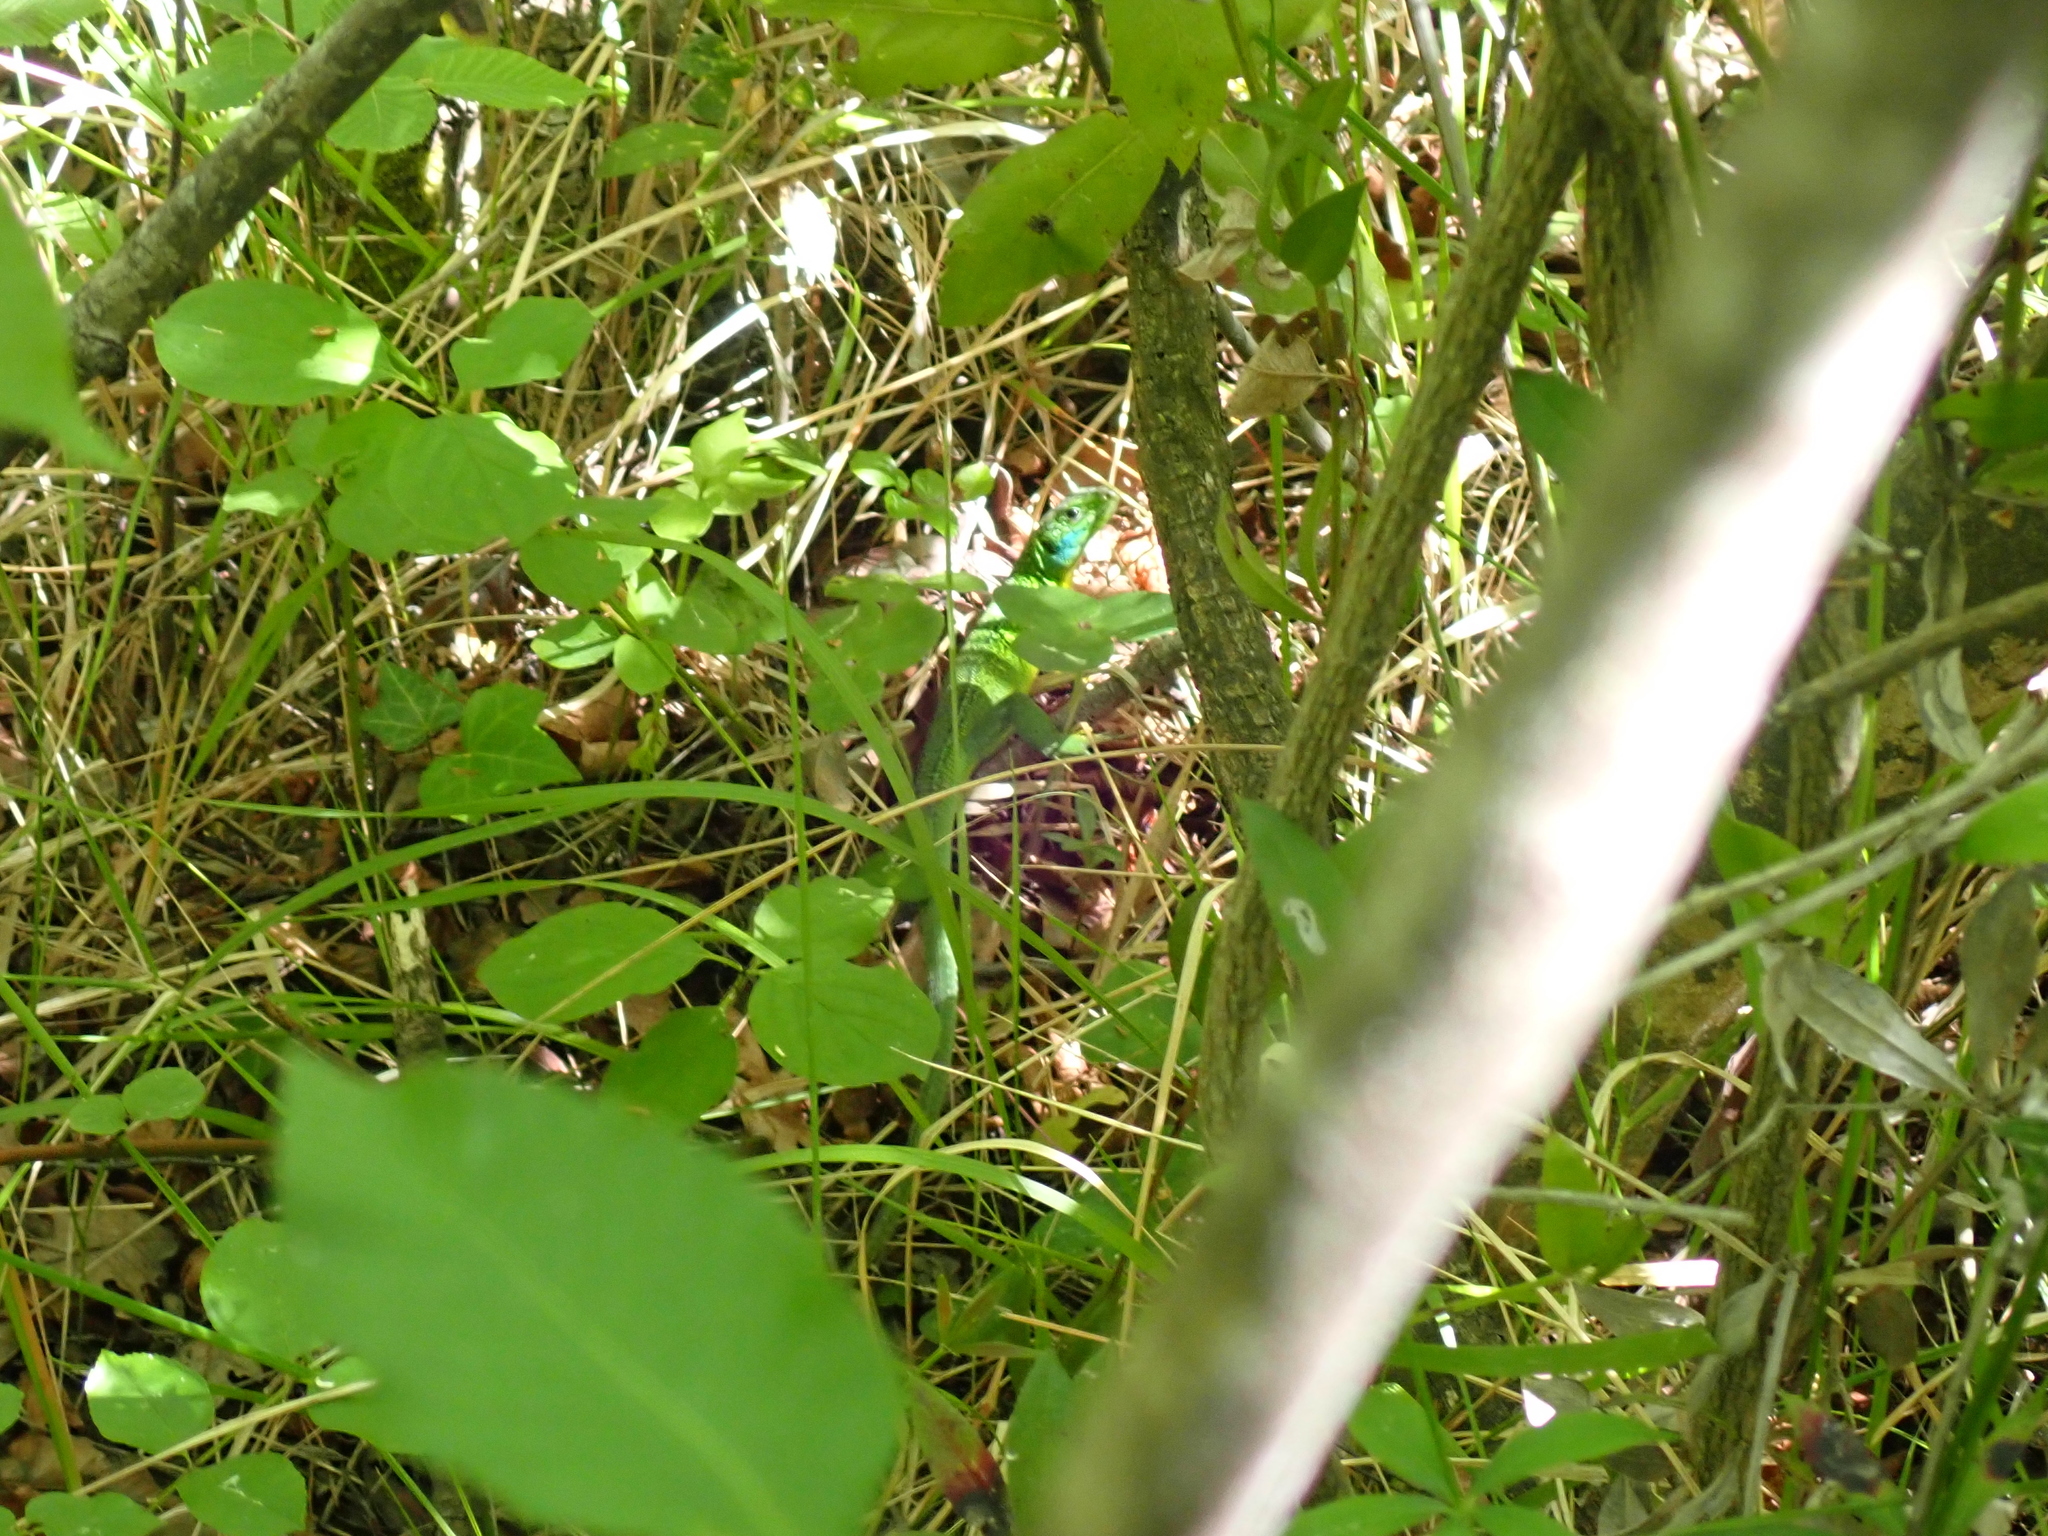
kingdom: Animalia
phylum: Chordata
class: Squamata
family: Lacertidae
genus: Lacerta
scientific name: Lacerta bilineata
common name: Western green lizard
